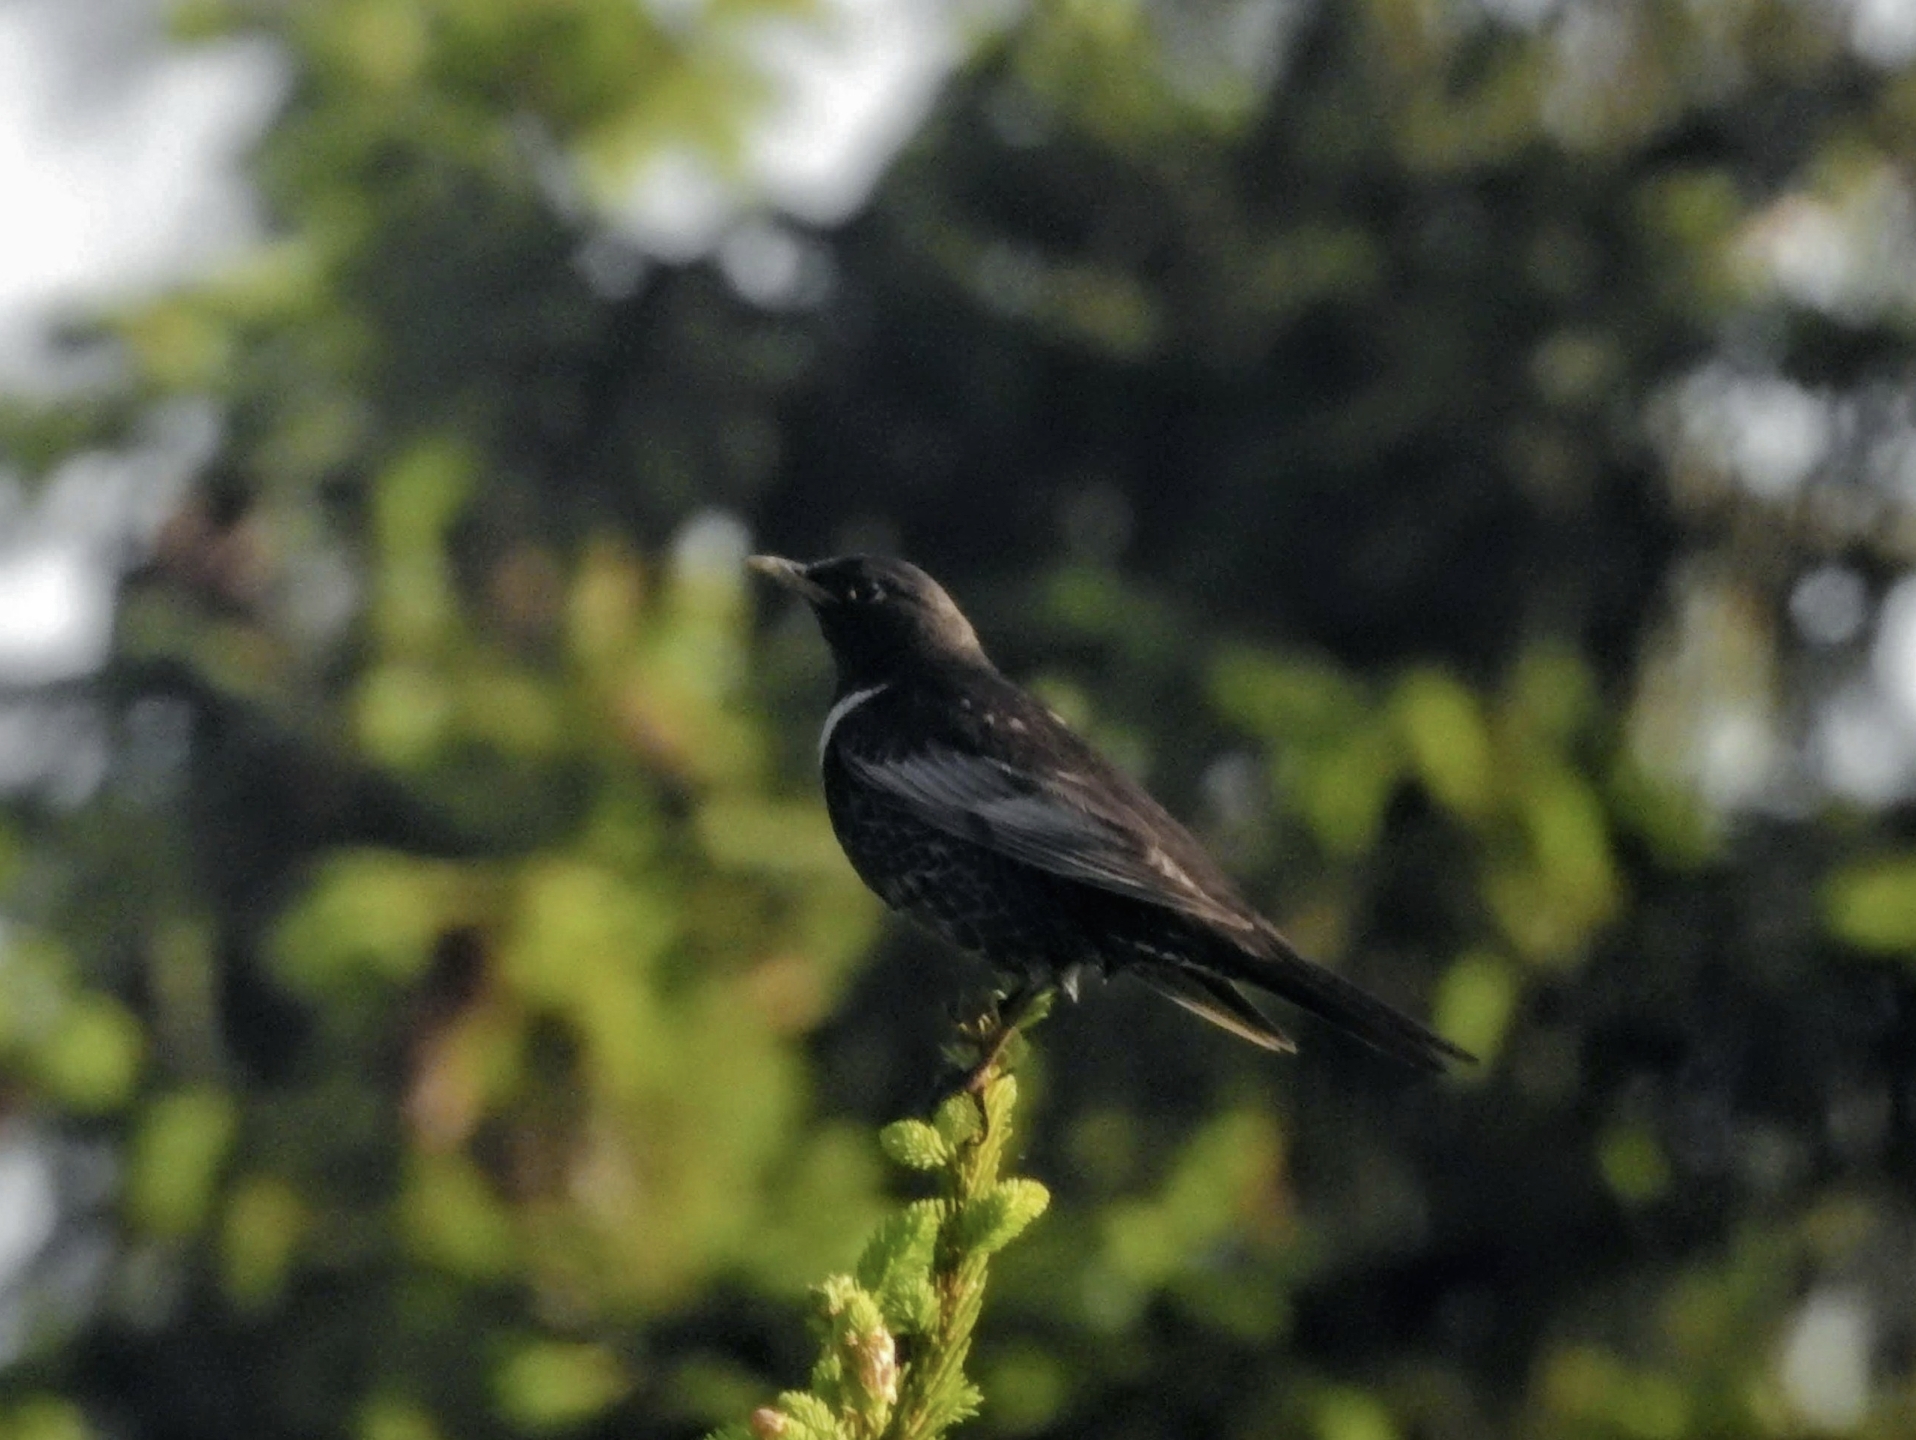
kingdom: Animalia
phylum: Chordata
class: Aves
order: Passeriformes
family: Turdidae
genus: Turdus
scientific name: Turdus torquatus
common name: Ring ouzel
